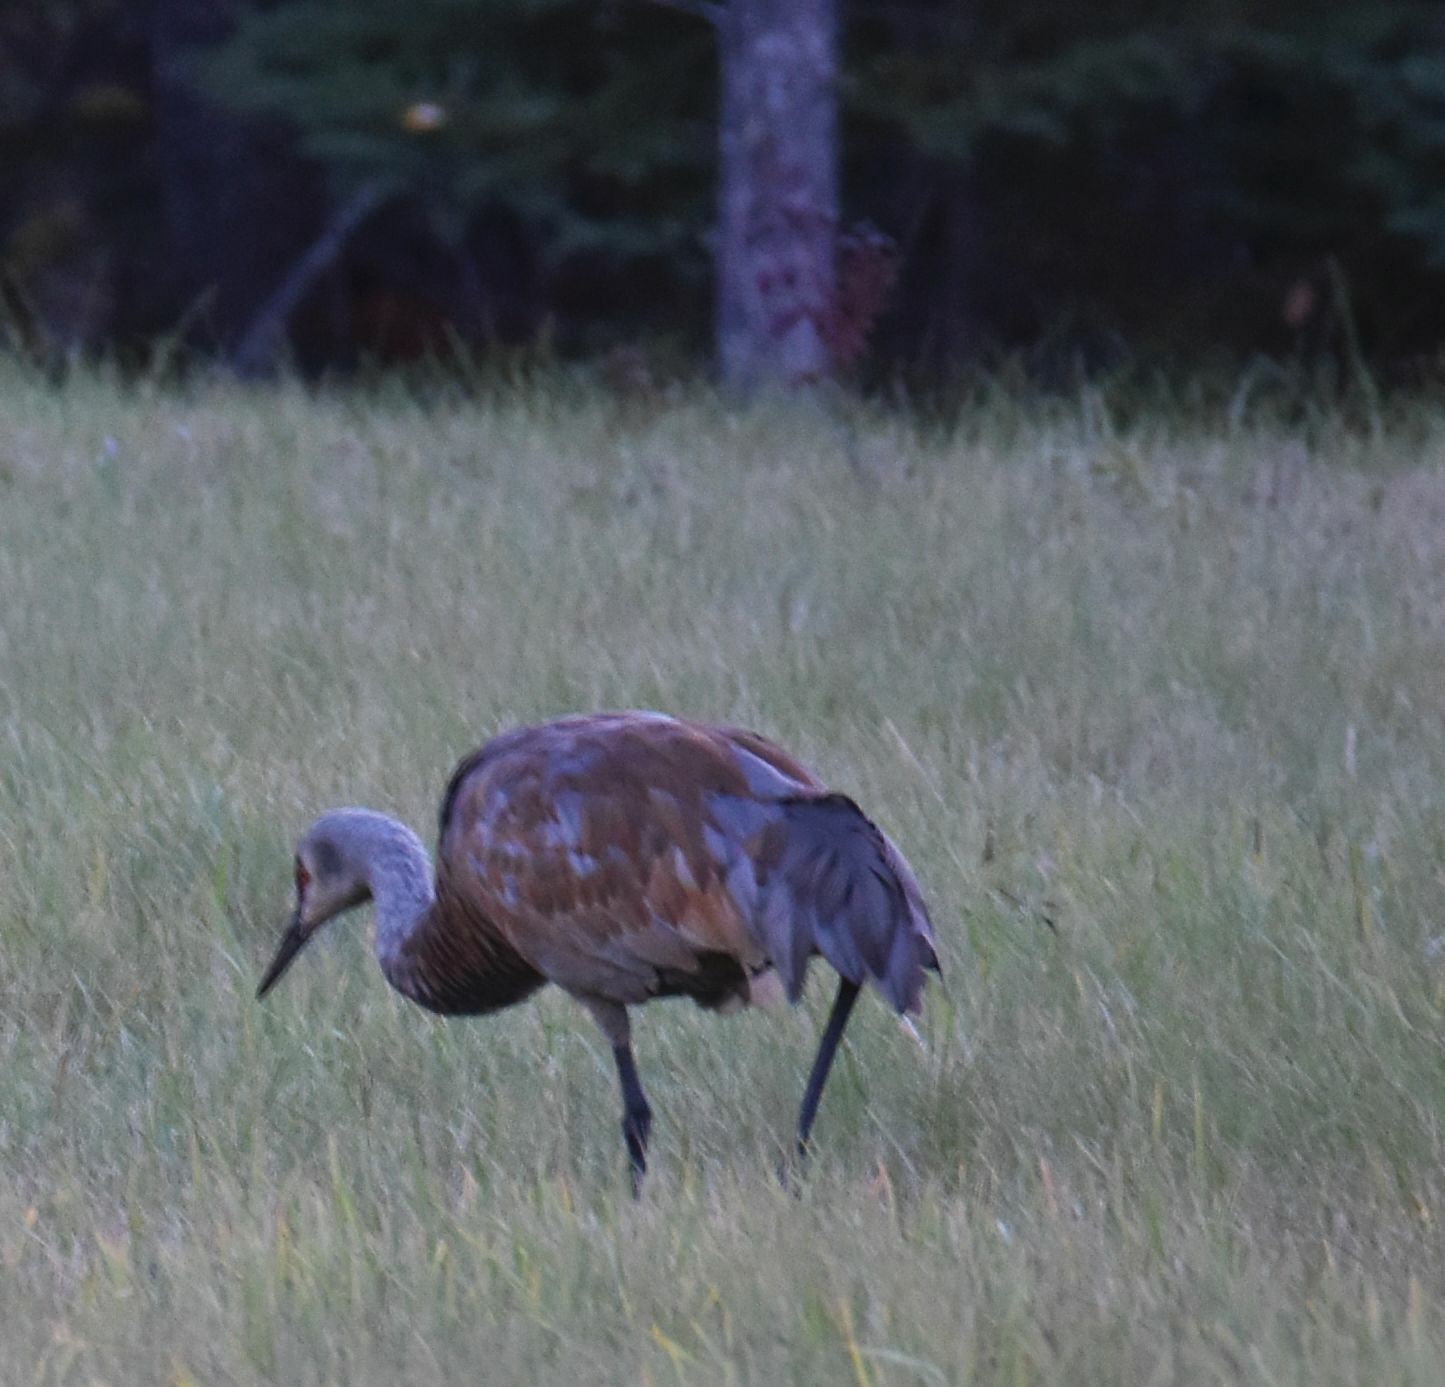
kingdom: Animalia
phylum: Chordata
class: Aves
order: Gruiformes
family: Gruidae
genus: Grus
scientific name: Grus canadensis
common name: Sandhill crane
